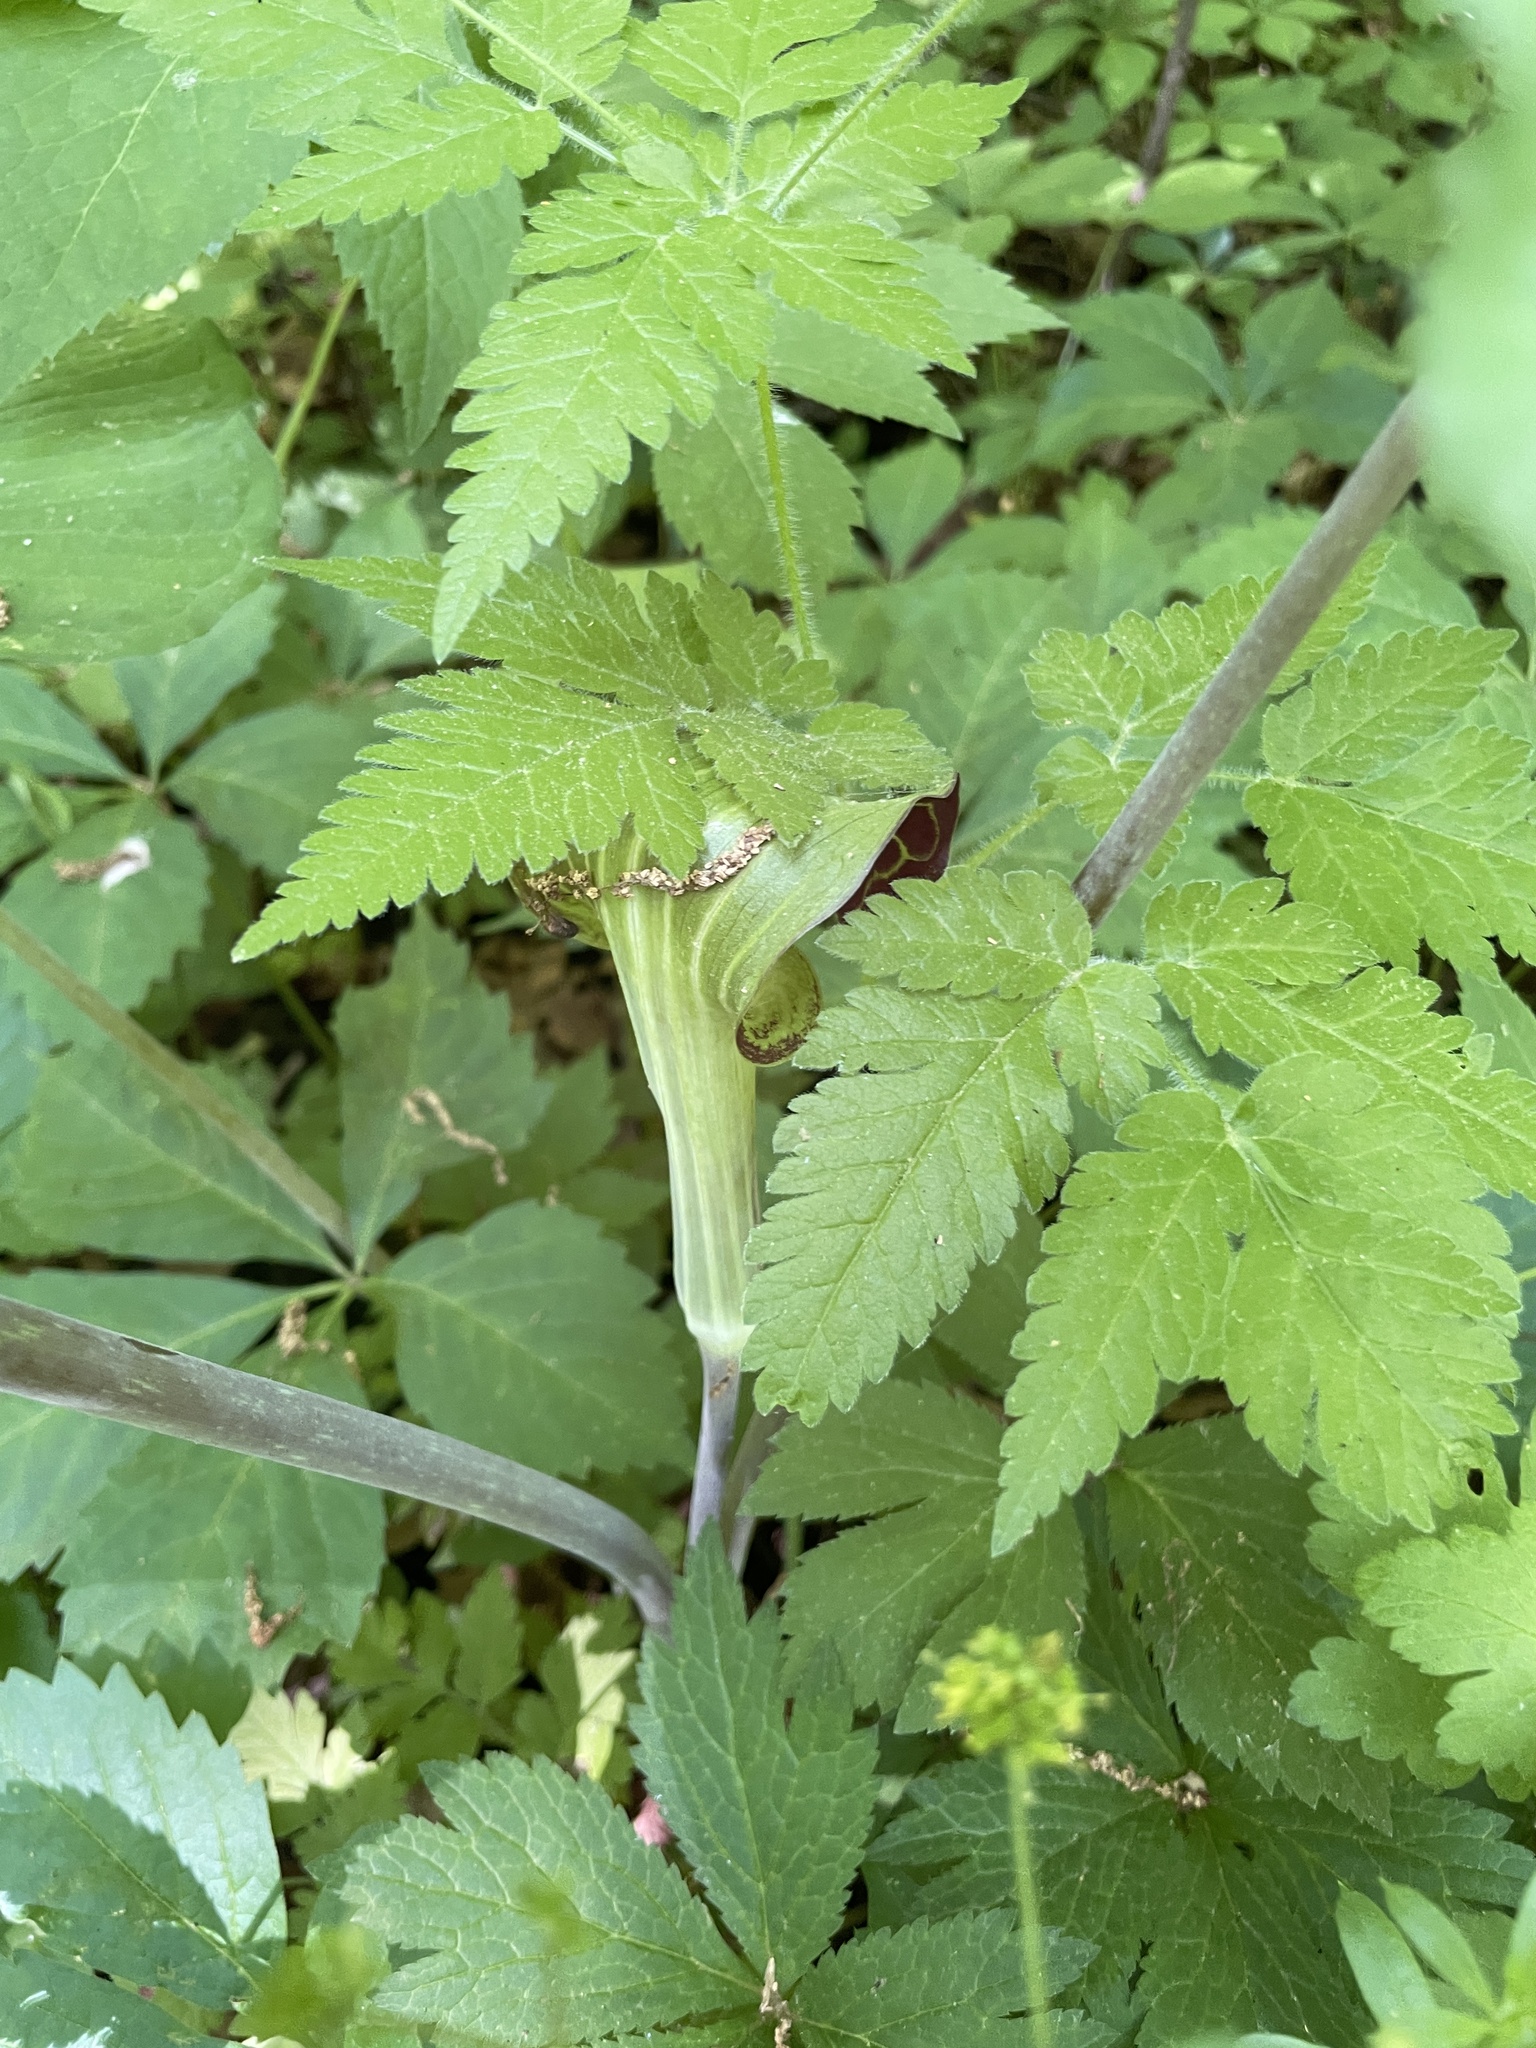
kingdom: Plantae
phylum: Tracheophyta
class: Liliopsida
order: Alismatales
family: Araceae
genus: Arisaema
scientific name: Arisaema triphyllum
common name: Jack-in-the-pulpit
